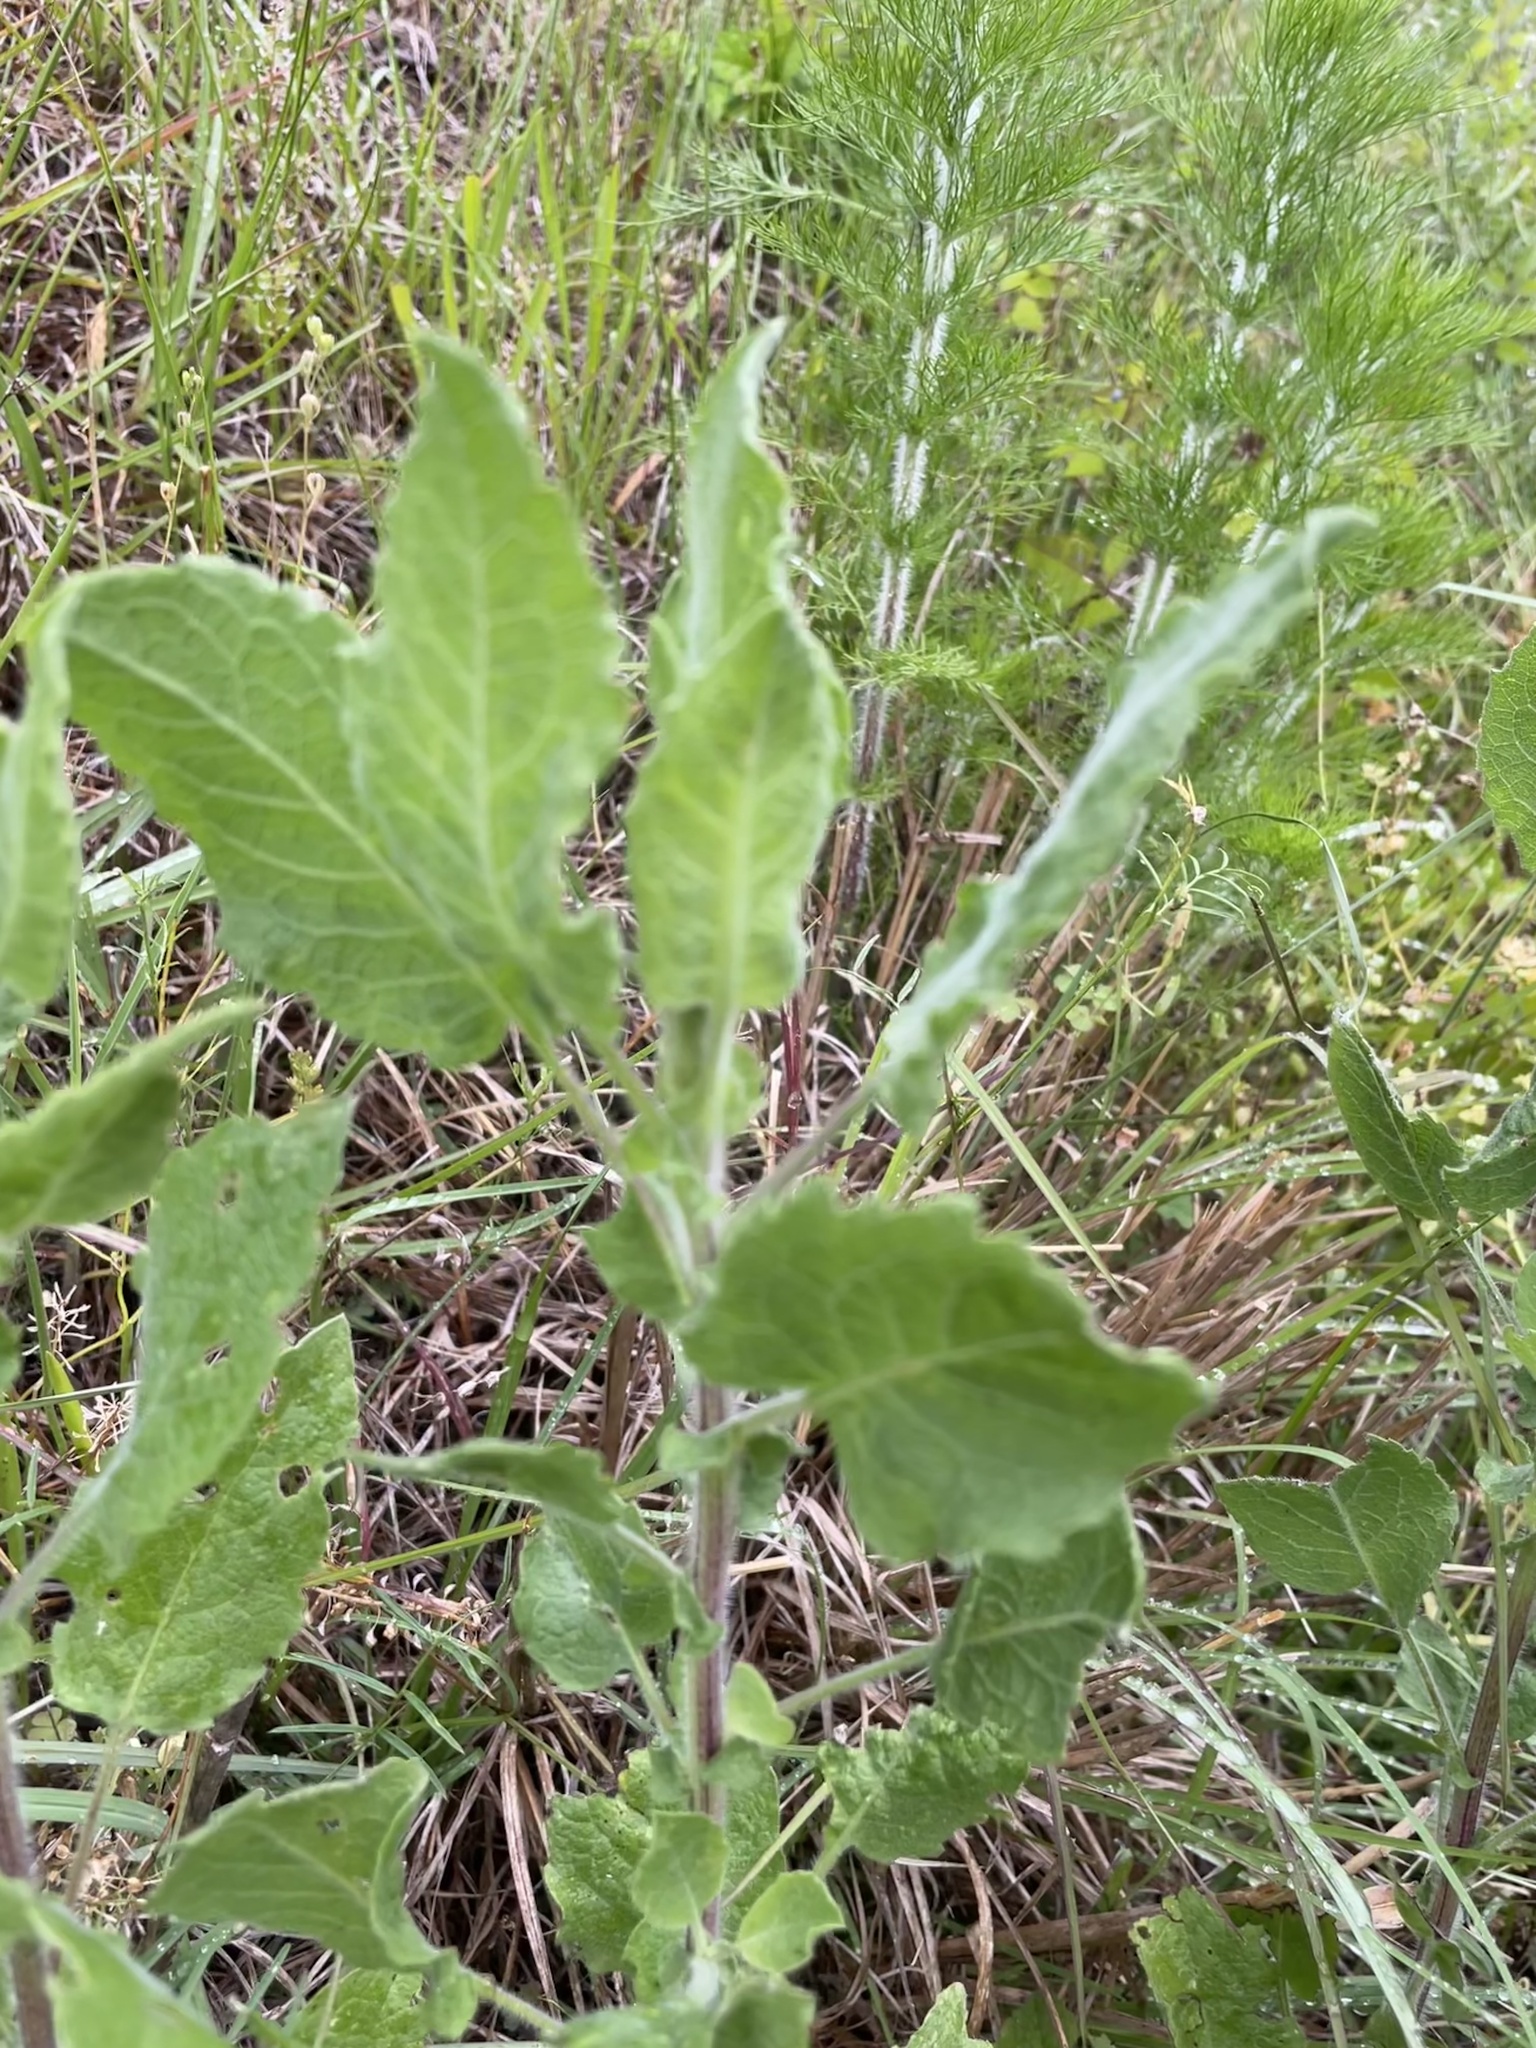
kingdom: Plantae
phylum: Tracheophyta
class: Magnoliopsida
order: Asterales
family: Asteraceae
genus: Heterotheca
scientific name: Heterotheca subaxillaris
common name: Camphorweed
